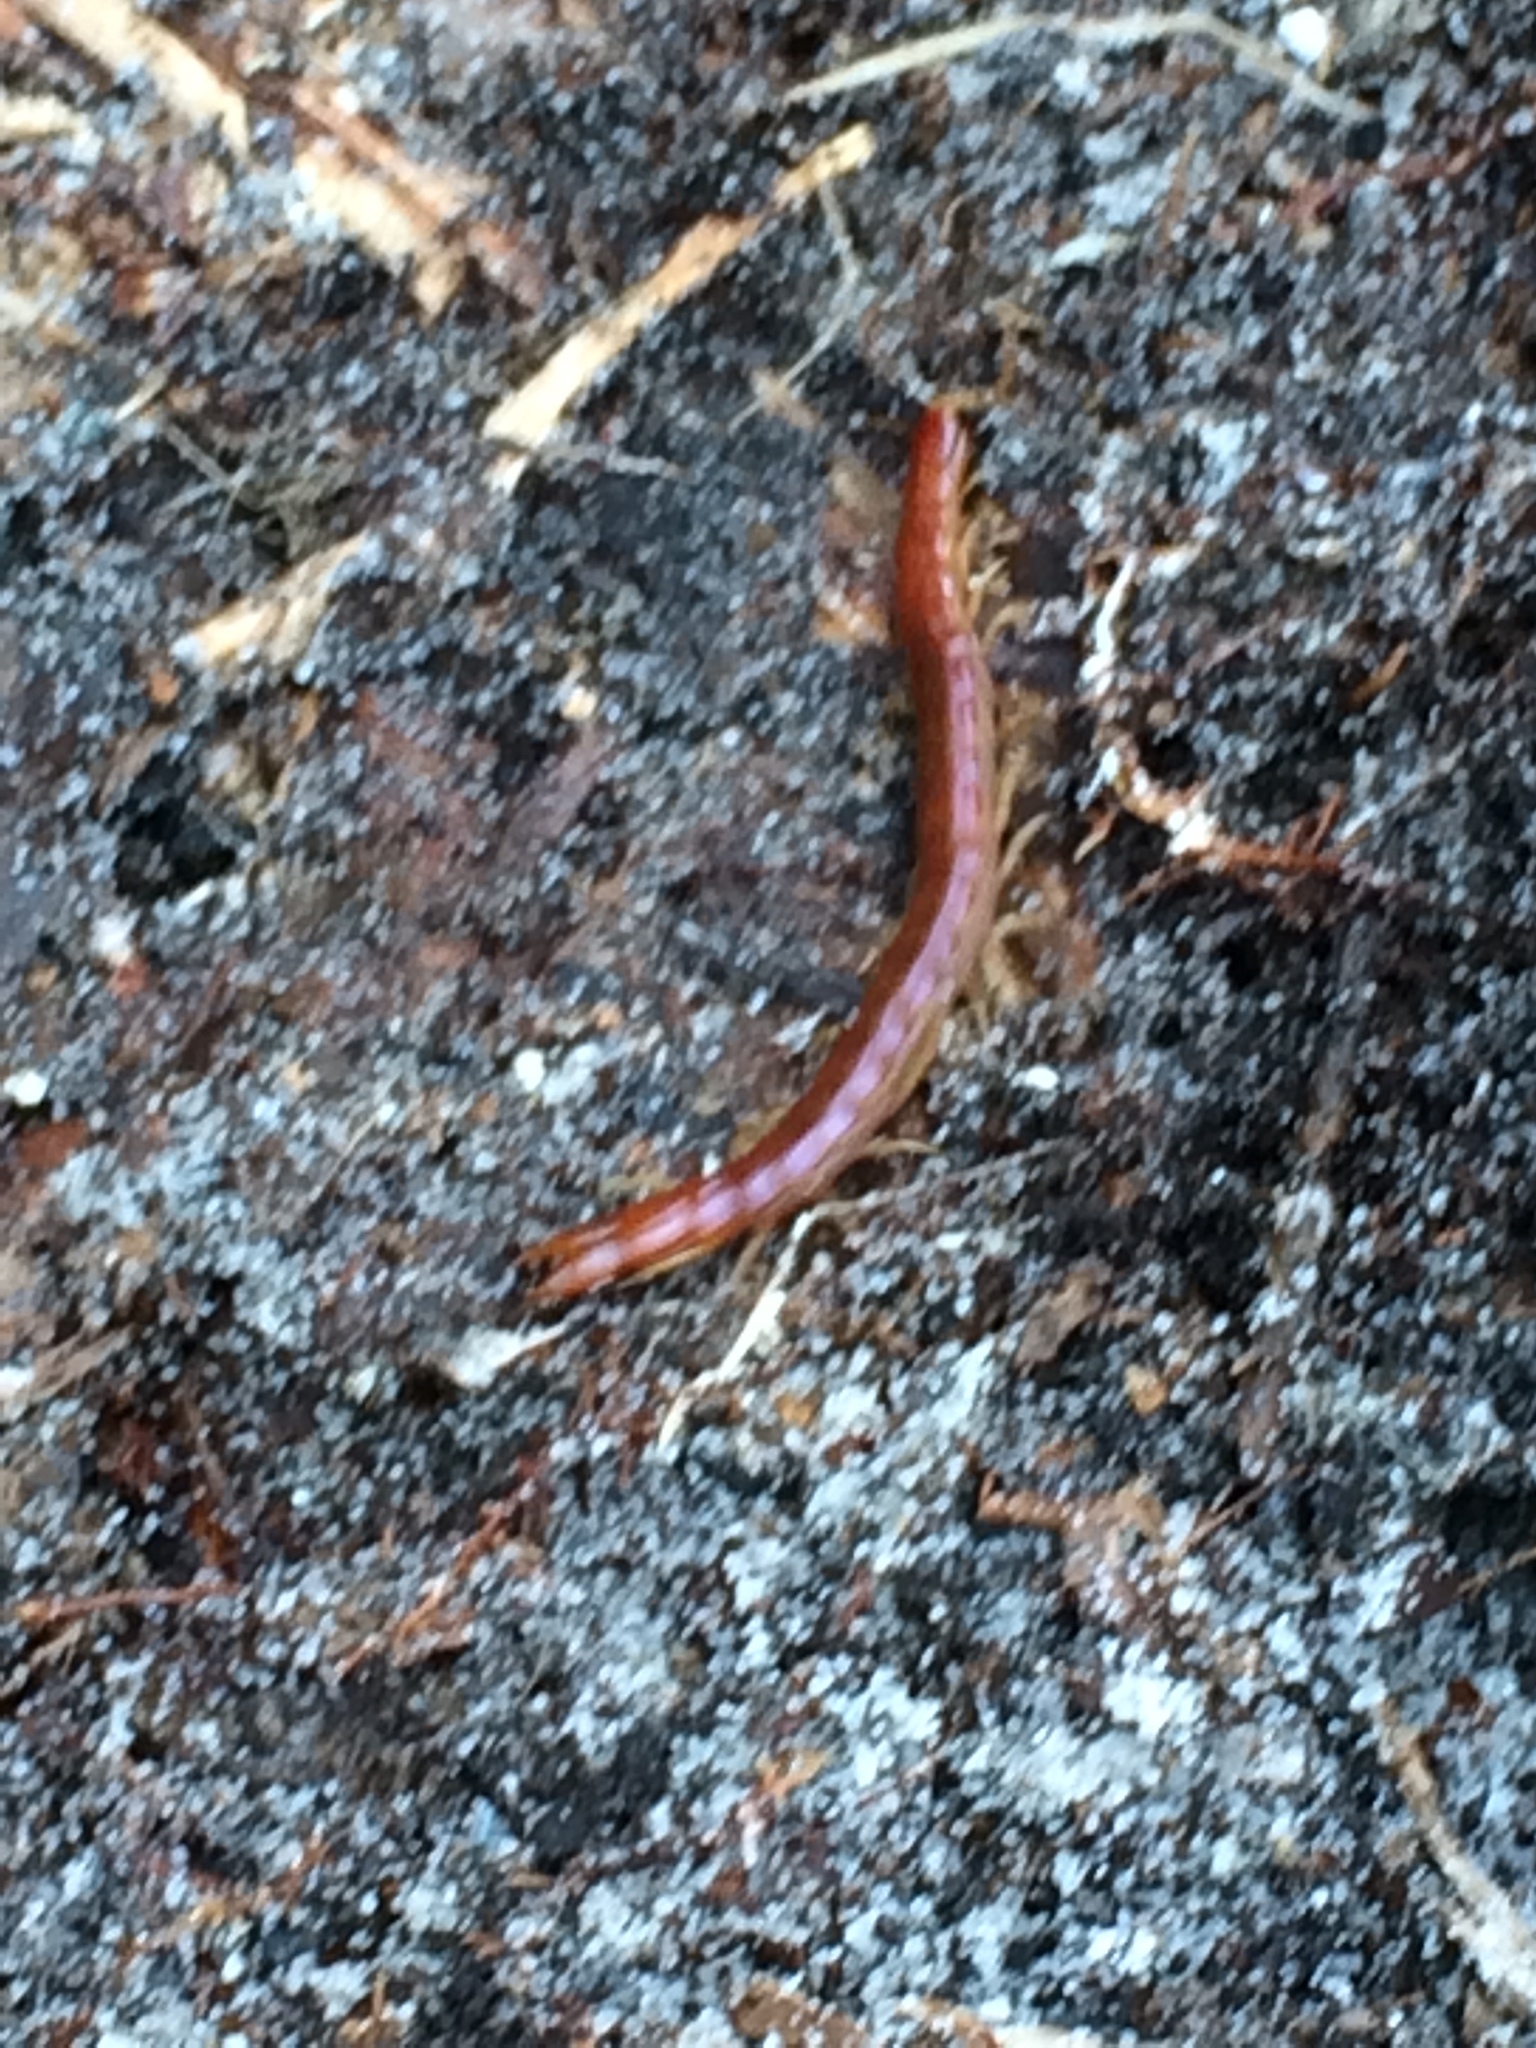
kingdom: Animalia
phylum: Arthropoda
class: Chilopoda
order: Scolopendromorpha
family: Cryptopidae
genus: Theatops
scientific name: Theatops posticus
